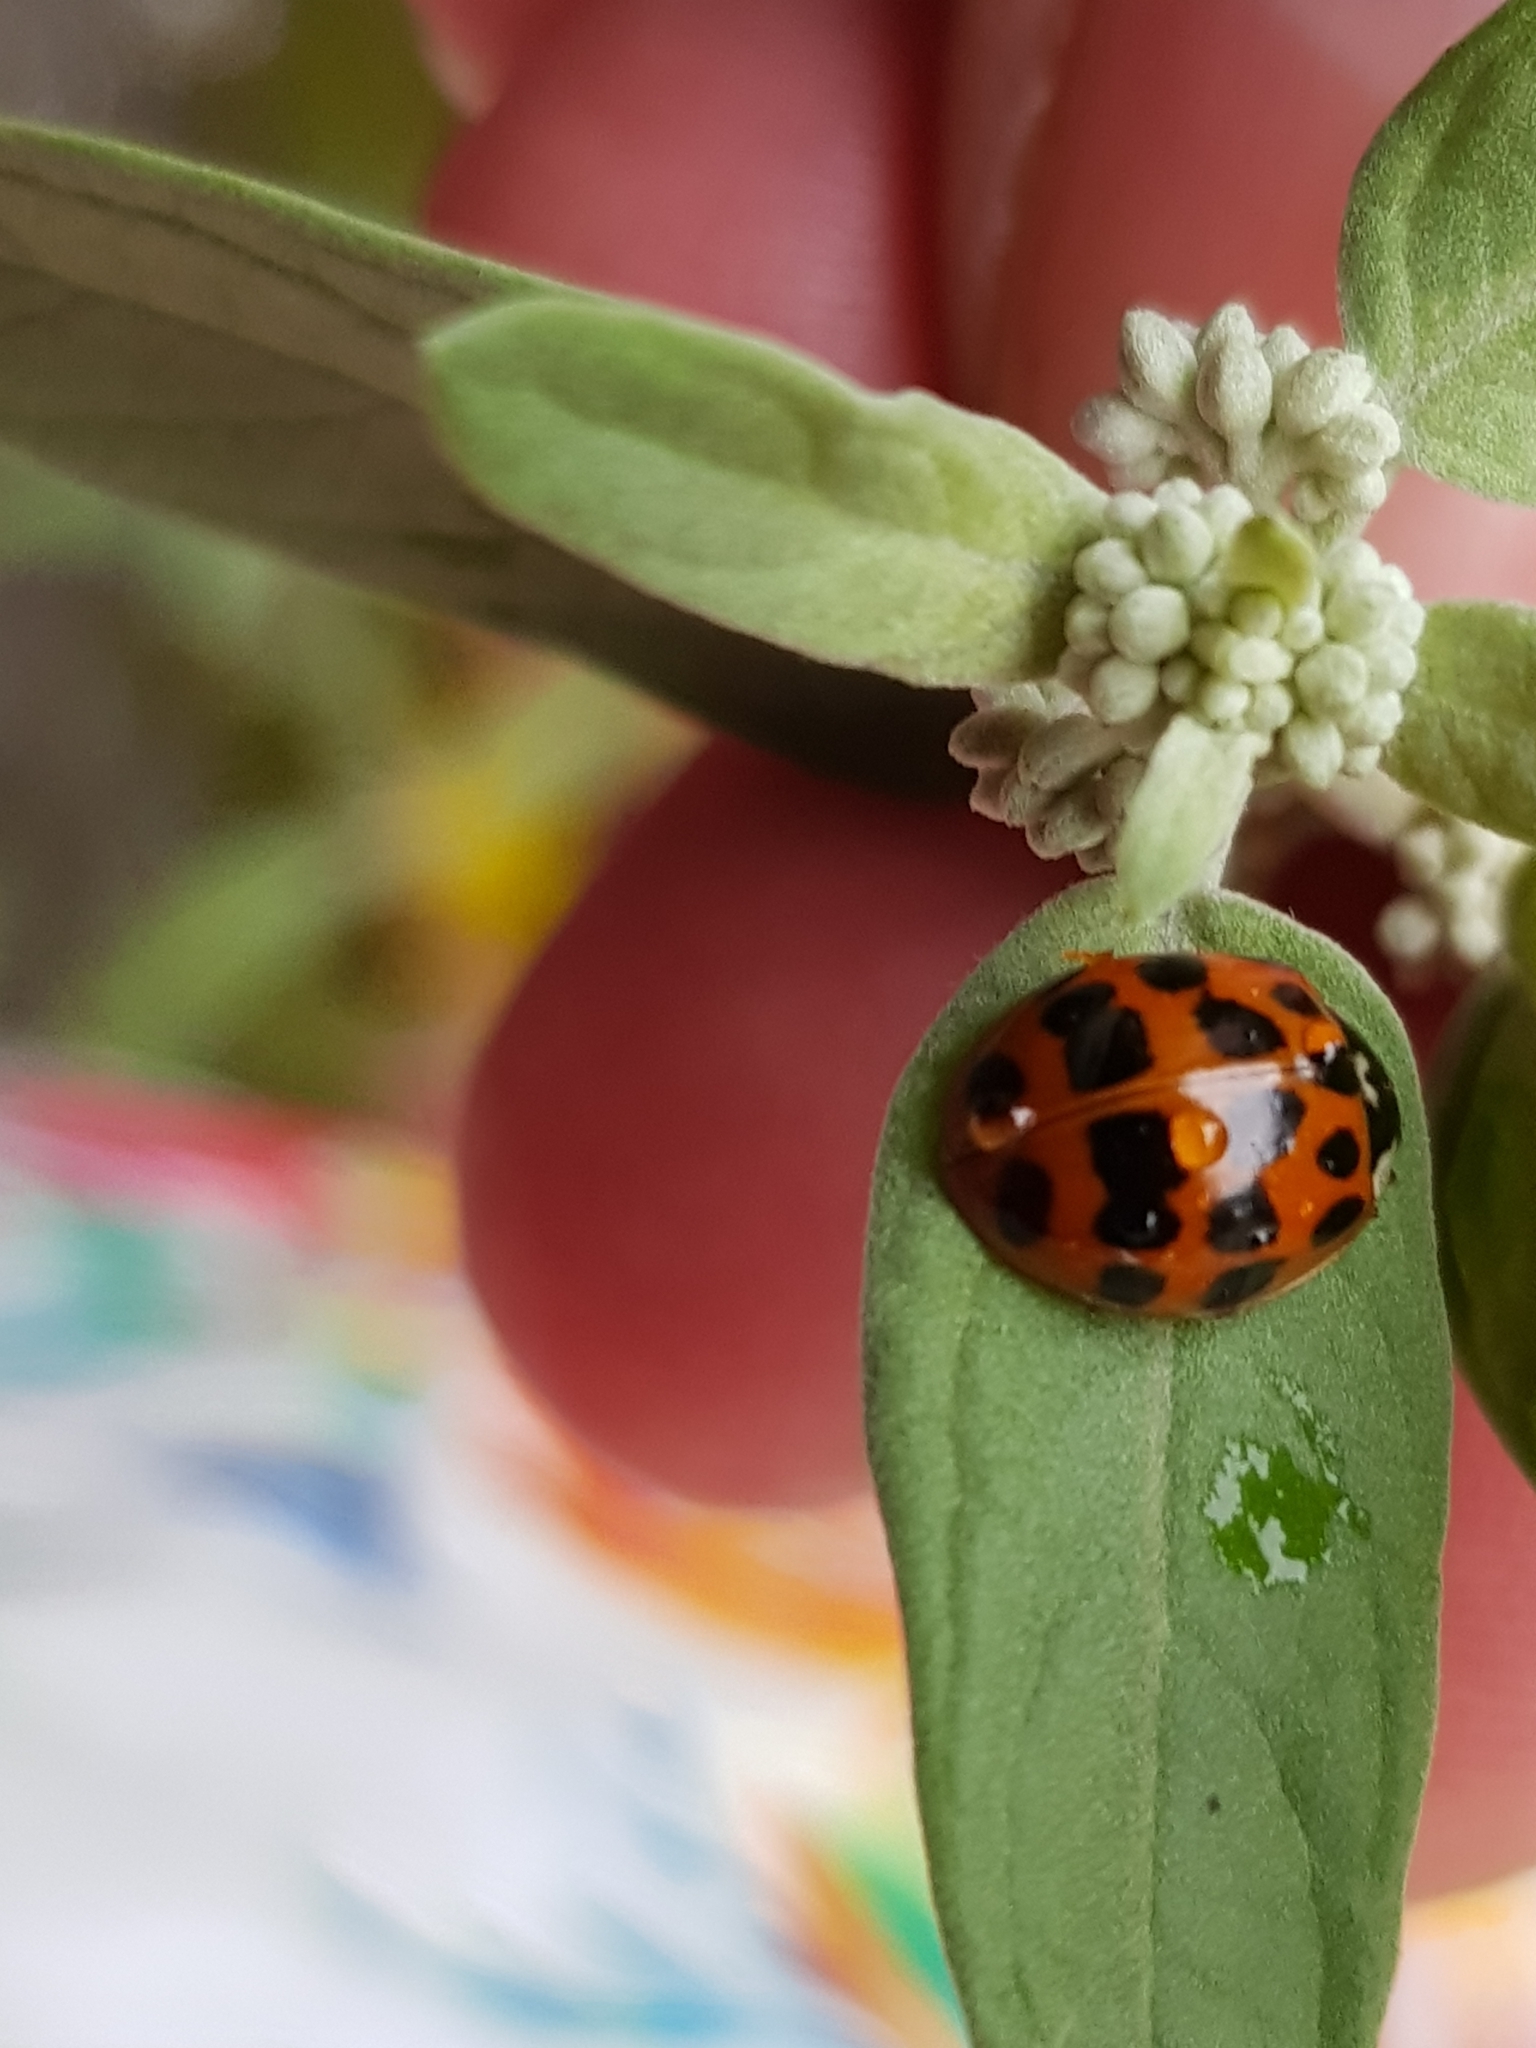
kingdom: Animalia
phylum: Arthropoda
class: Insecta
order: Coleoptera
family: Coccinellidae
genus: Harmonia
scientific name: Harmonia axyridis
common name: Harlequin ladybird
